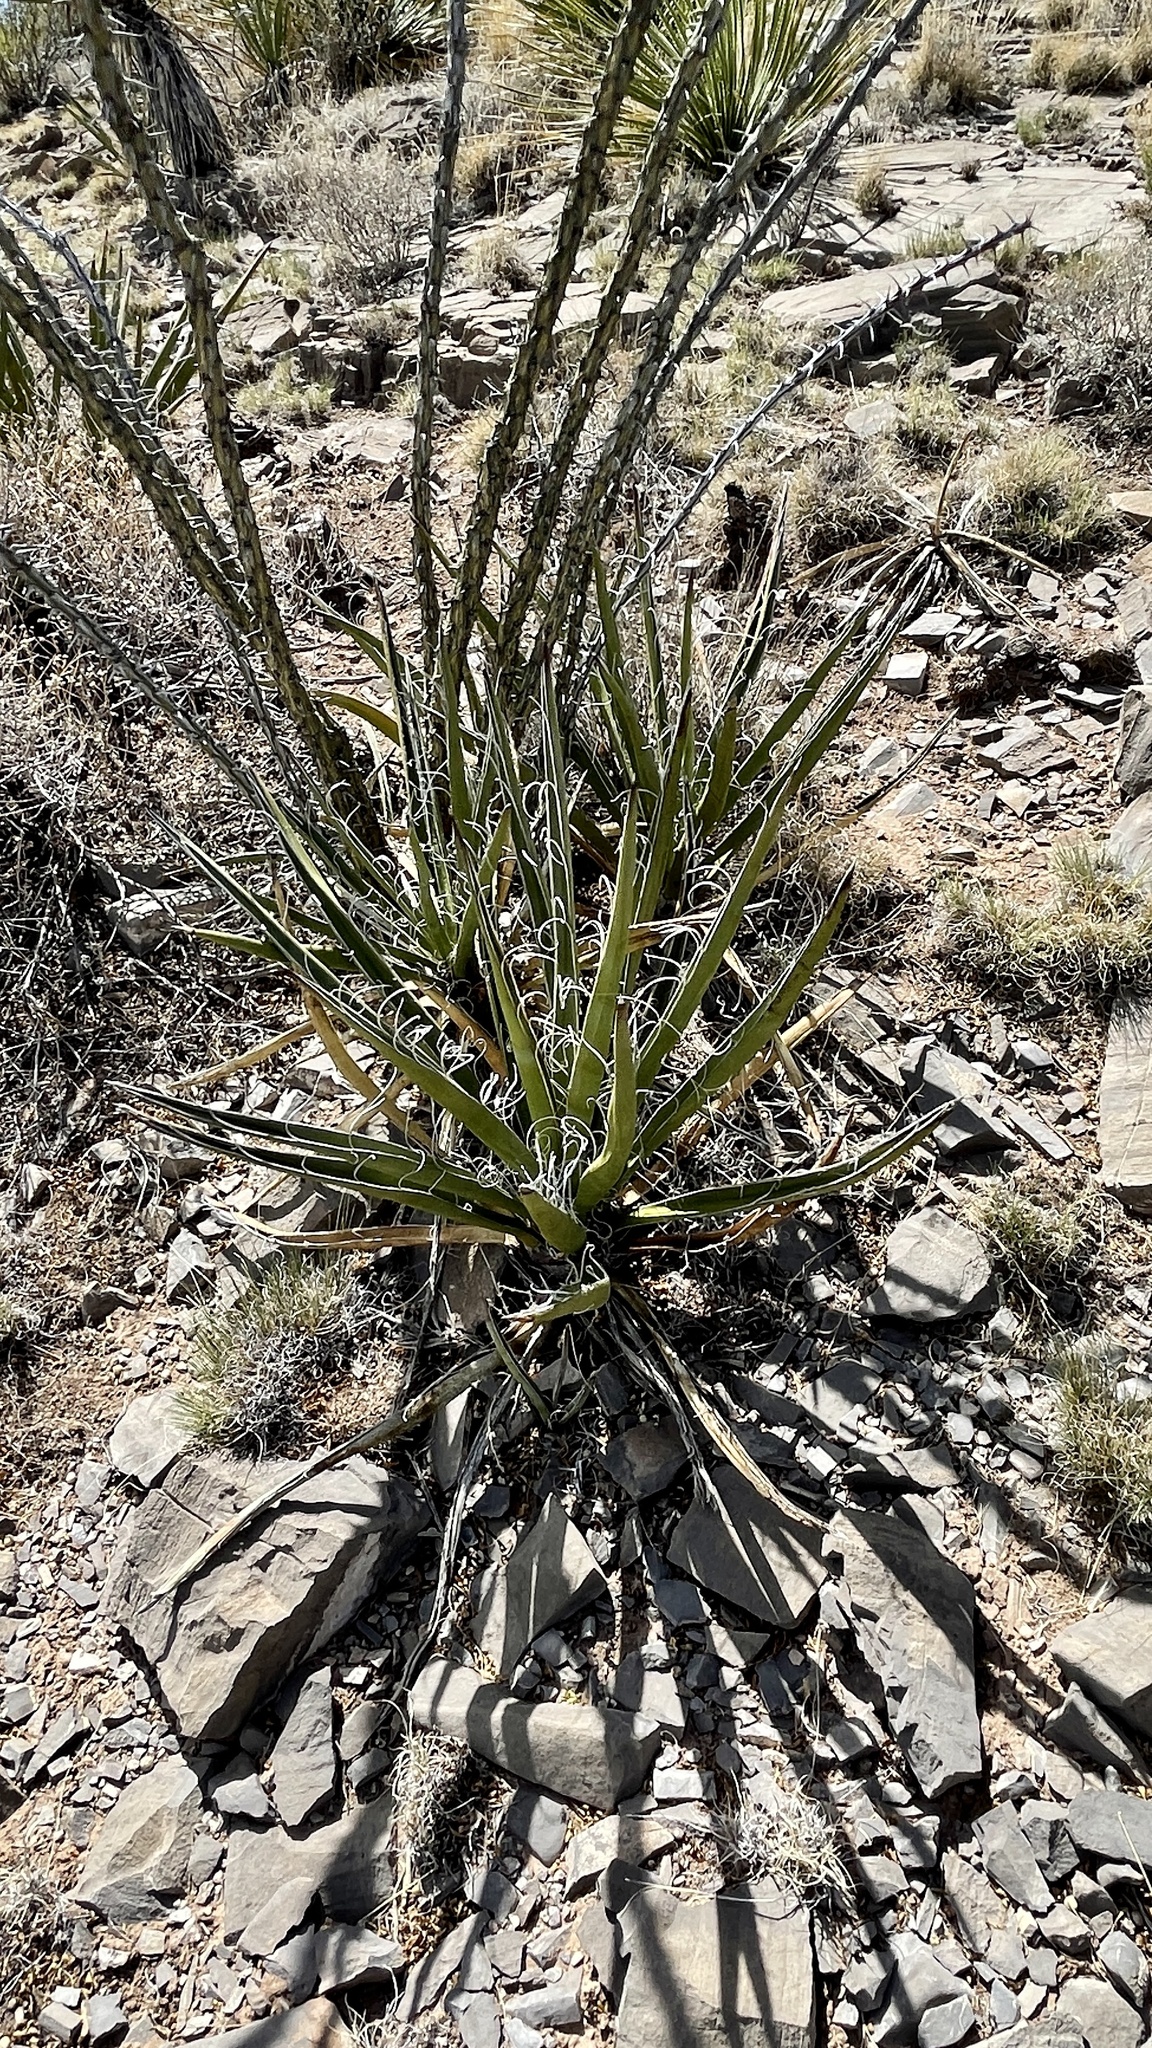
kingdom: Plantae
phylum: Tracheophyta
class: Liliopsida
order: Asparagales
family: Asparagaceae
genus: Yucca
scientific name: Yucca baccata
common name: Banana yucca
